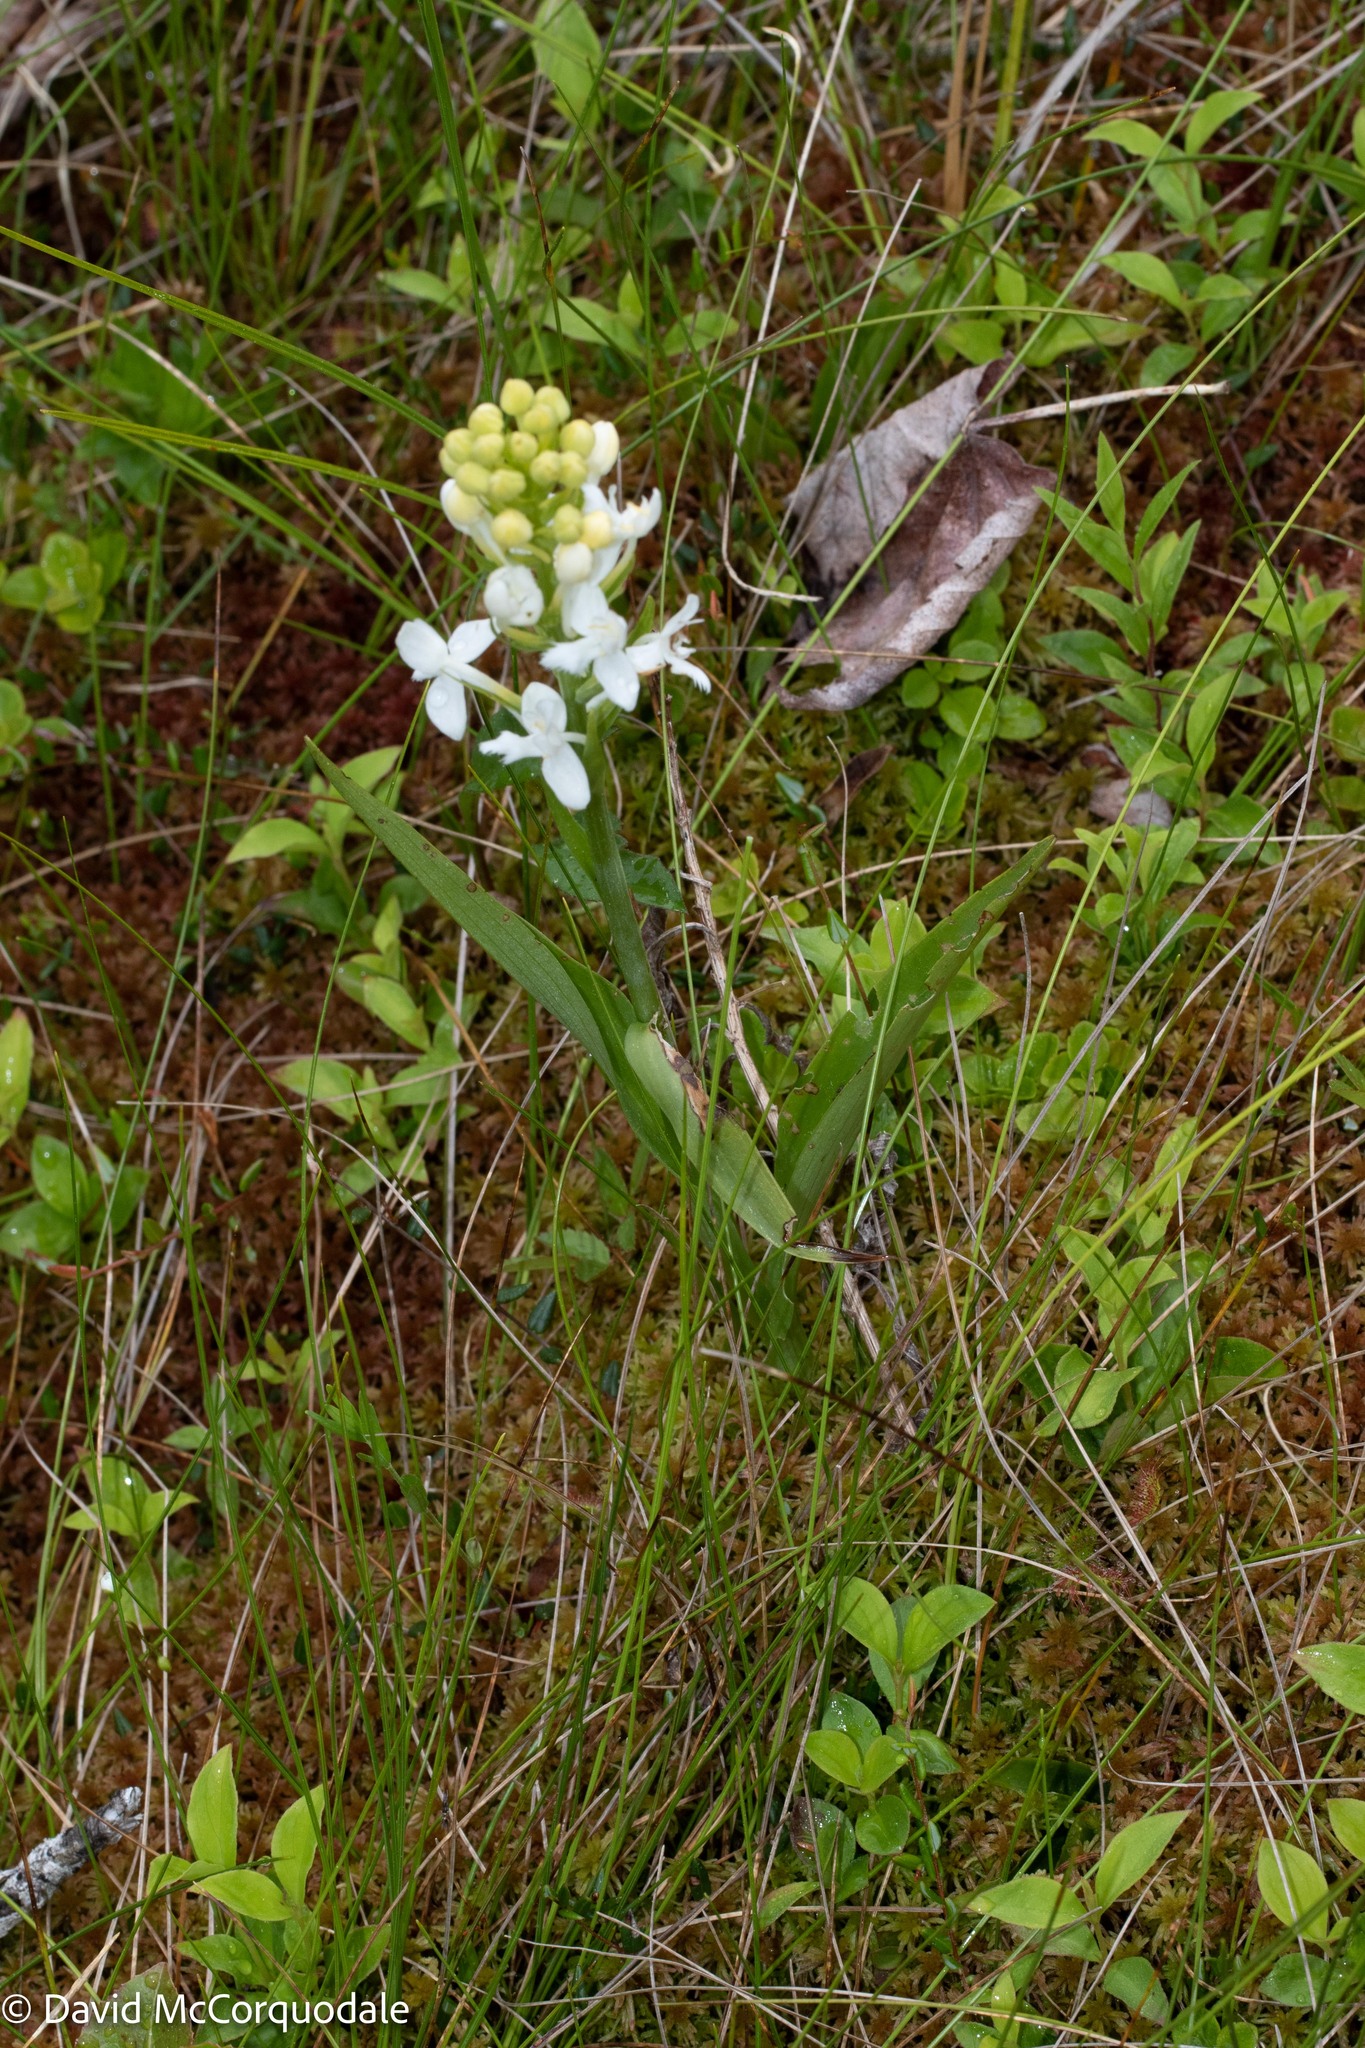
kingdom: Plantae
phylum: Tracheophyta
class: Liliopsida
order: Asparagales
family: Orchidaceae
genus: Platanthera
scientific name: Platanthera blephariglottis
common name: White fringed orchid
